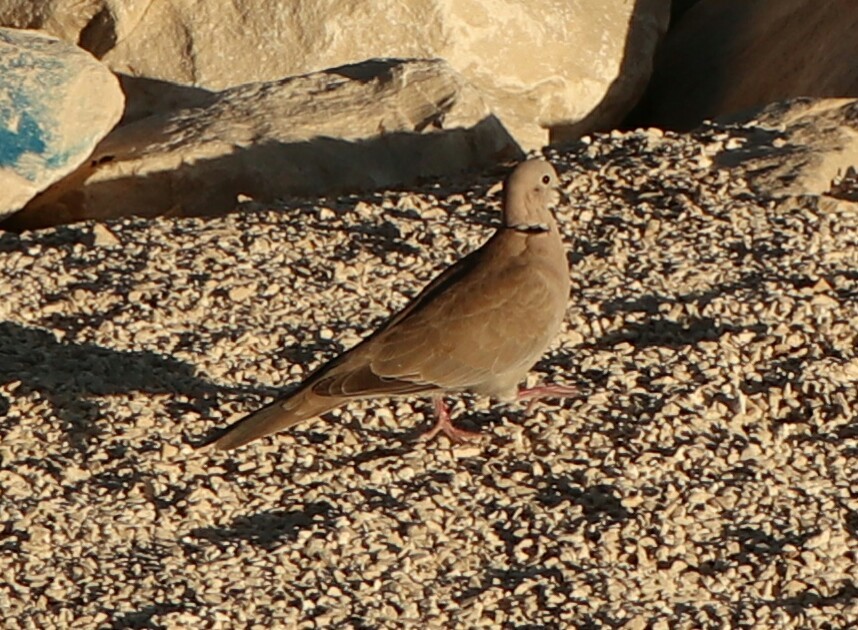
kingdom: Animalia
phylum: Chordata
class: Aves
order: Columbiformes
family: Columbidae
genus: Streptopelia
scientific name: Streptopelia decaocto
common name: Eurasian collared dove
